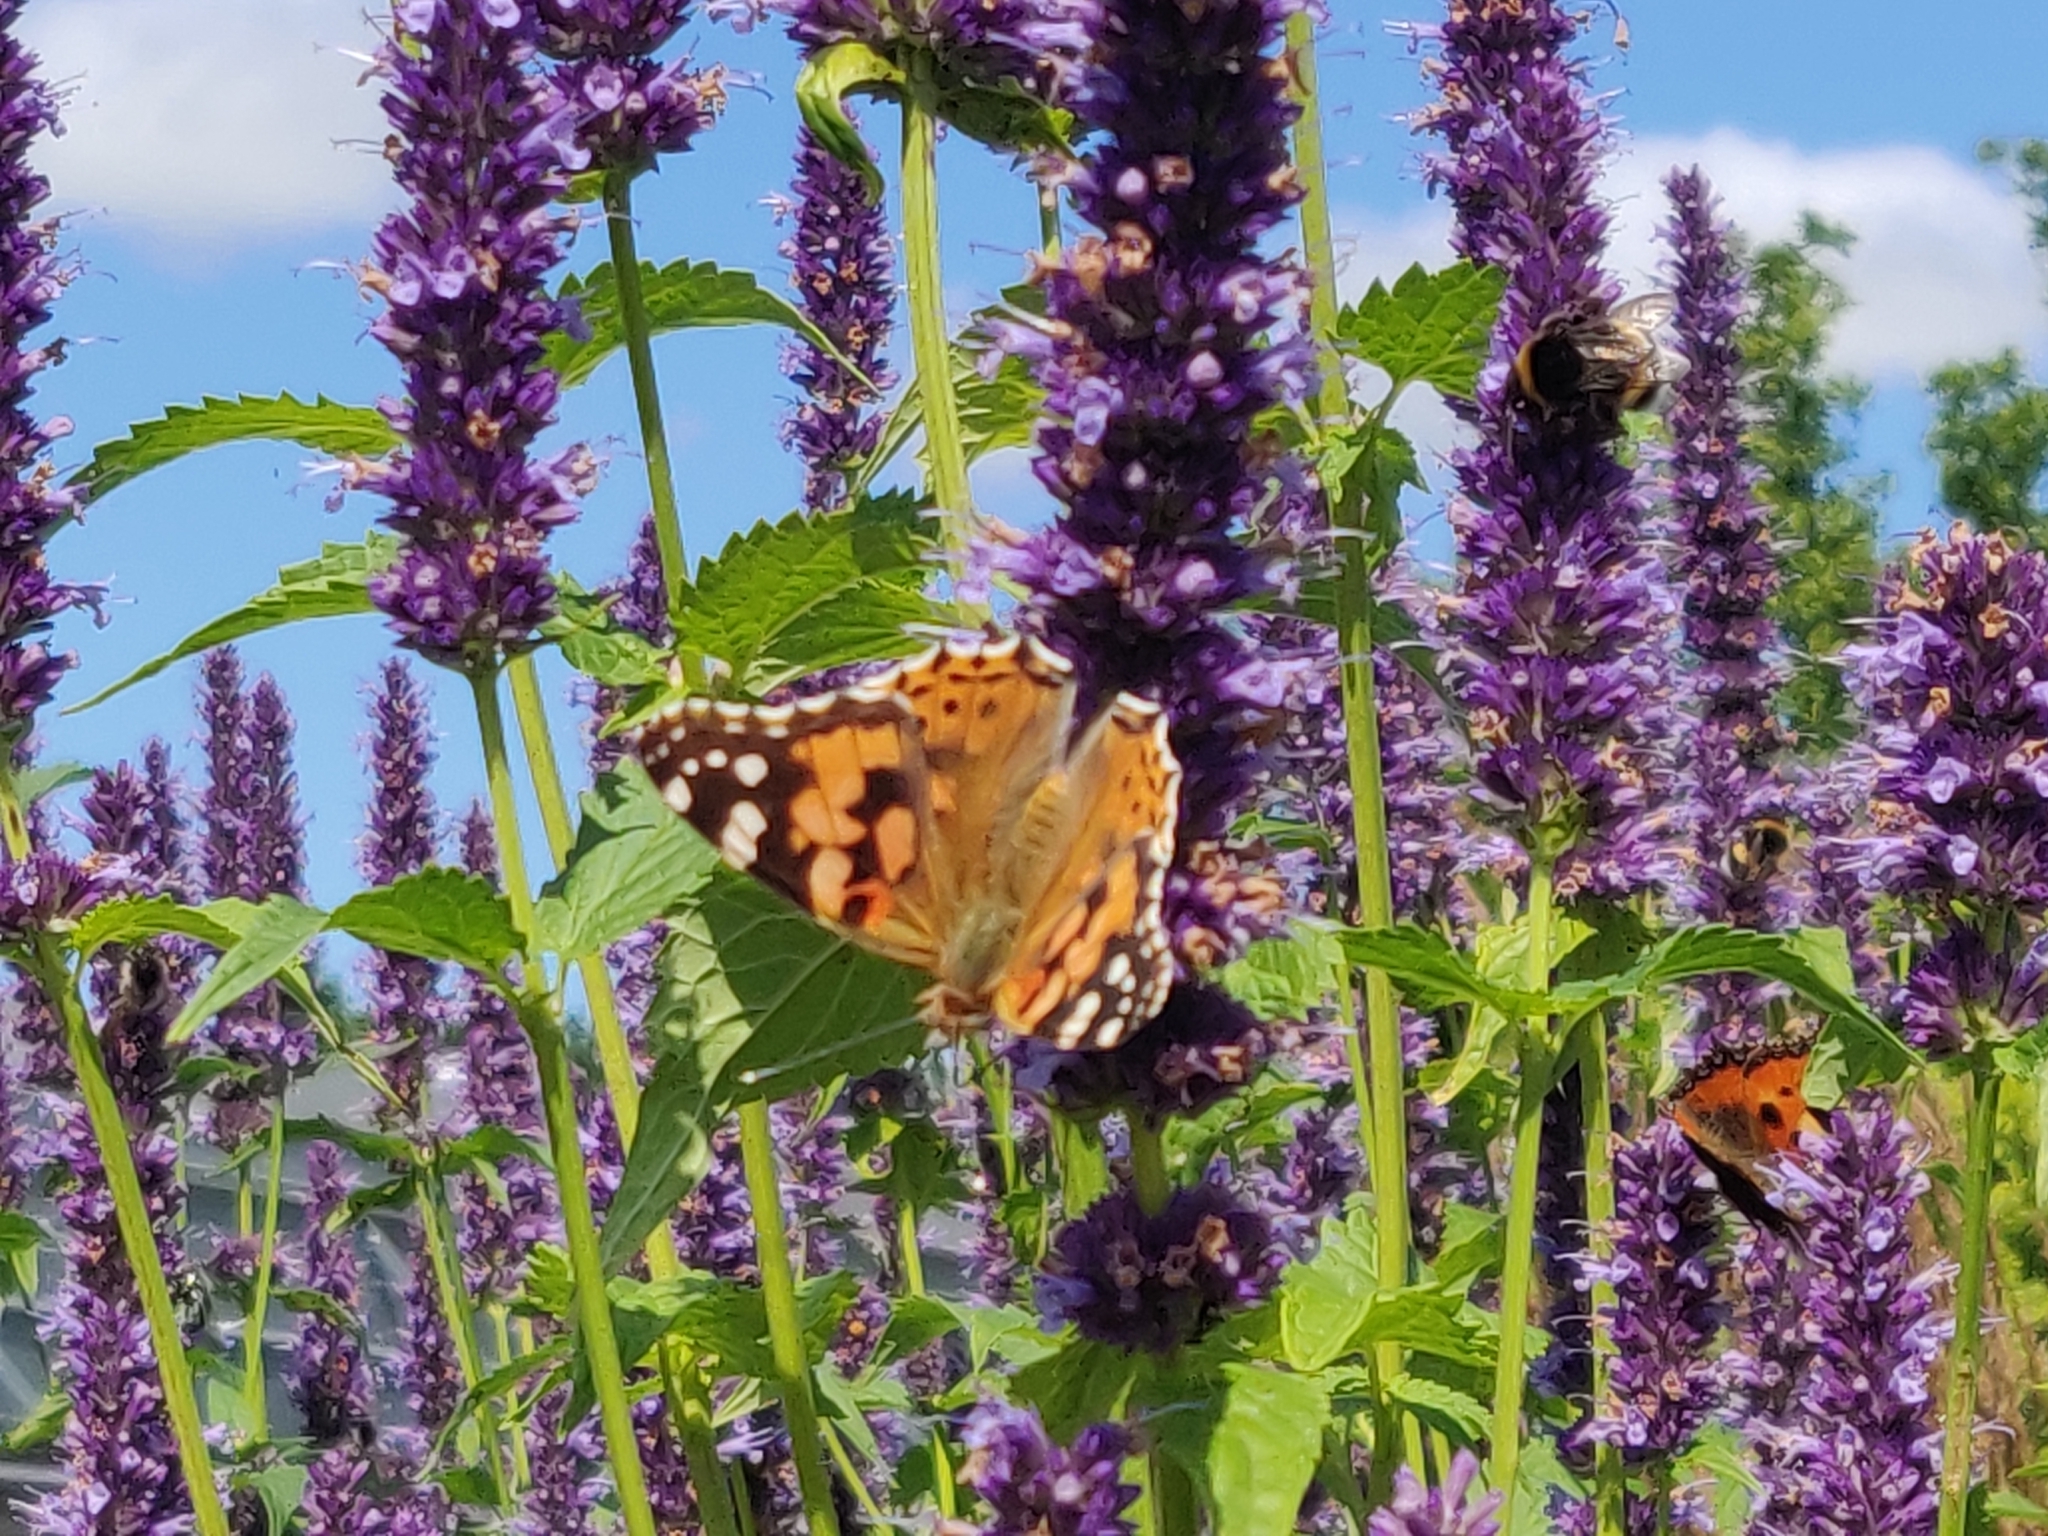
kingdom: Animalia
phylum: Arthropoda
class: Insecta
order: Lepidoptera
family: Nymphalidae
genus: Vanessa
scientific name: Vanessa cardui
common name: Painted lady
